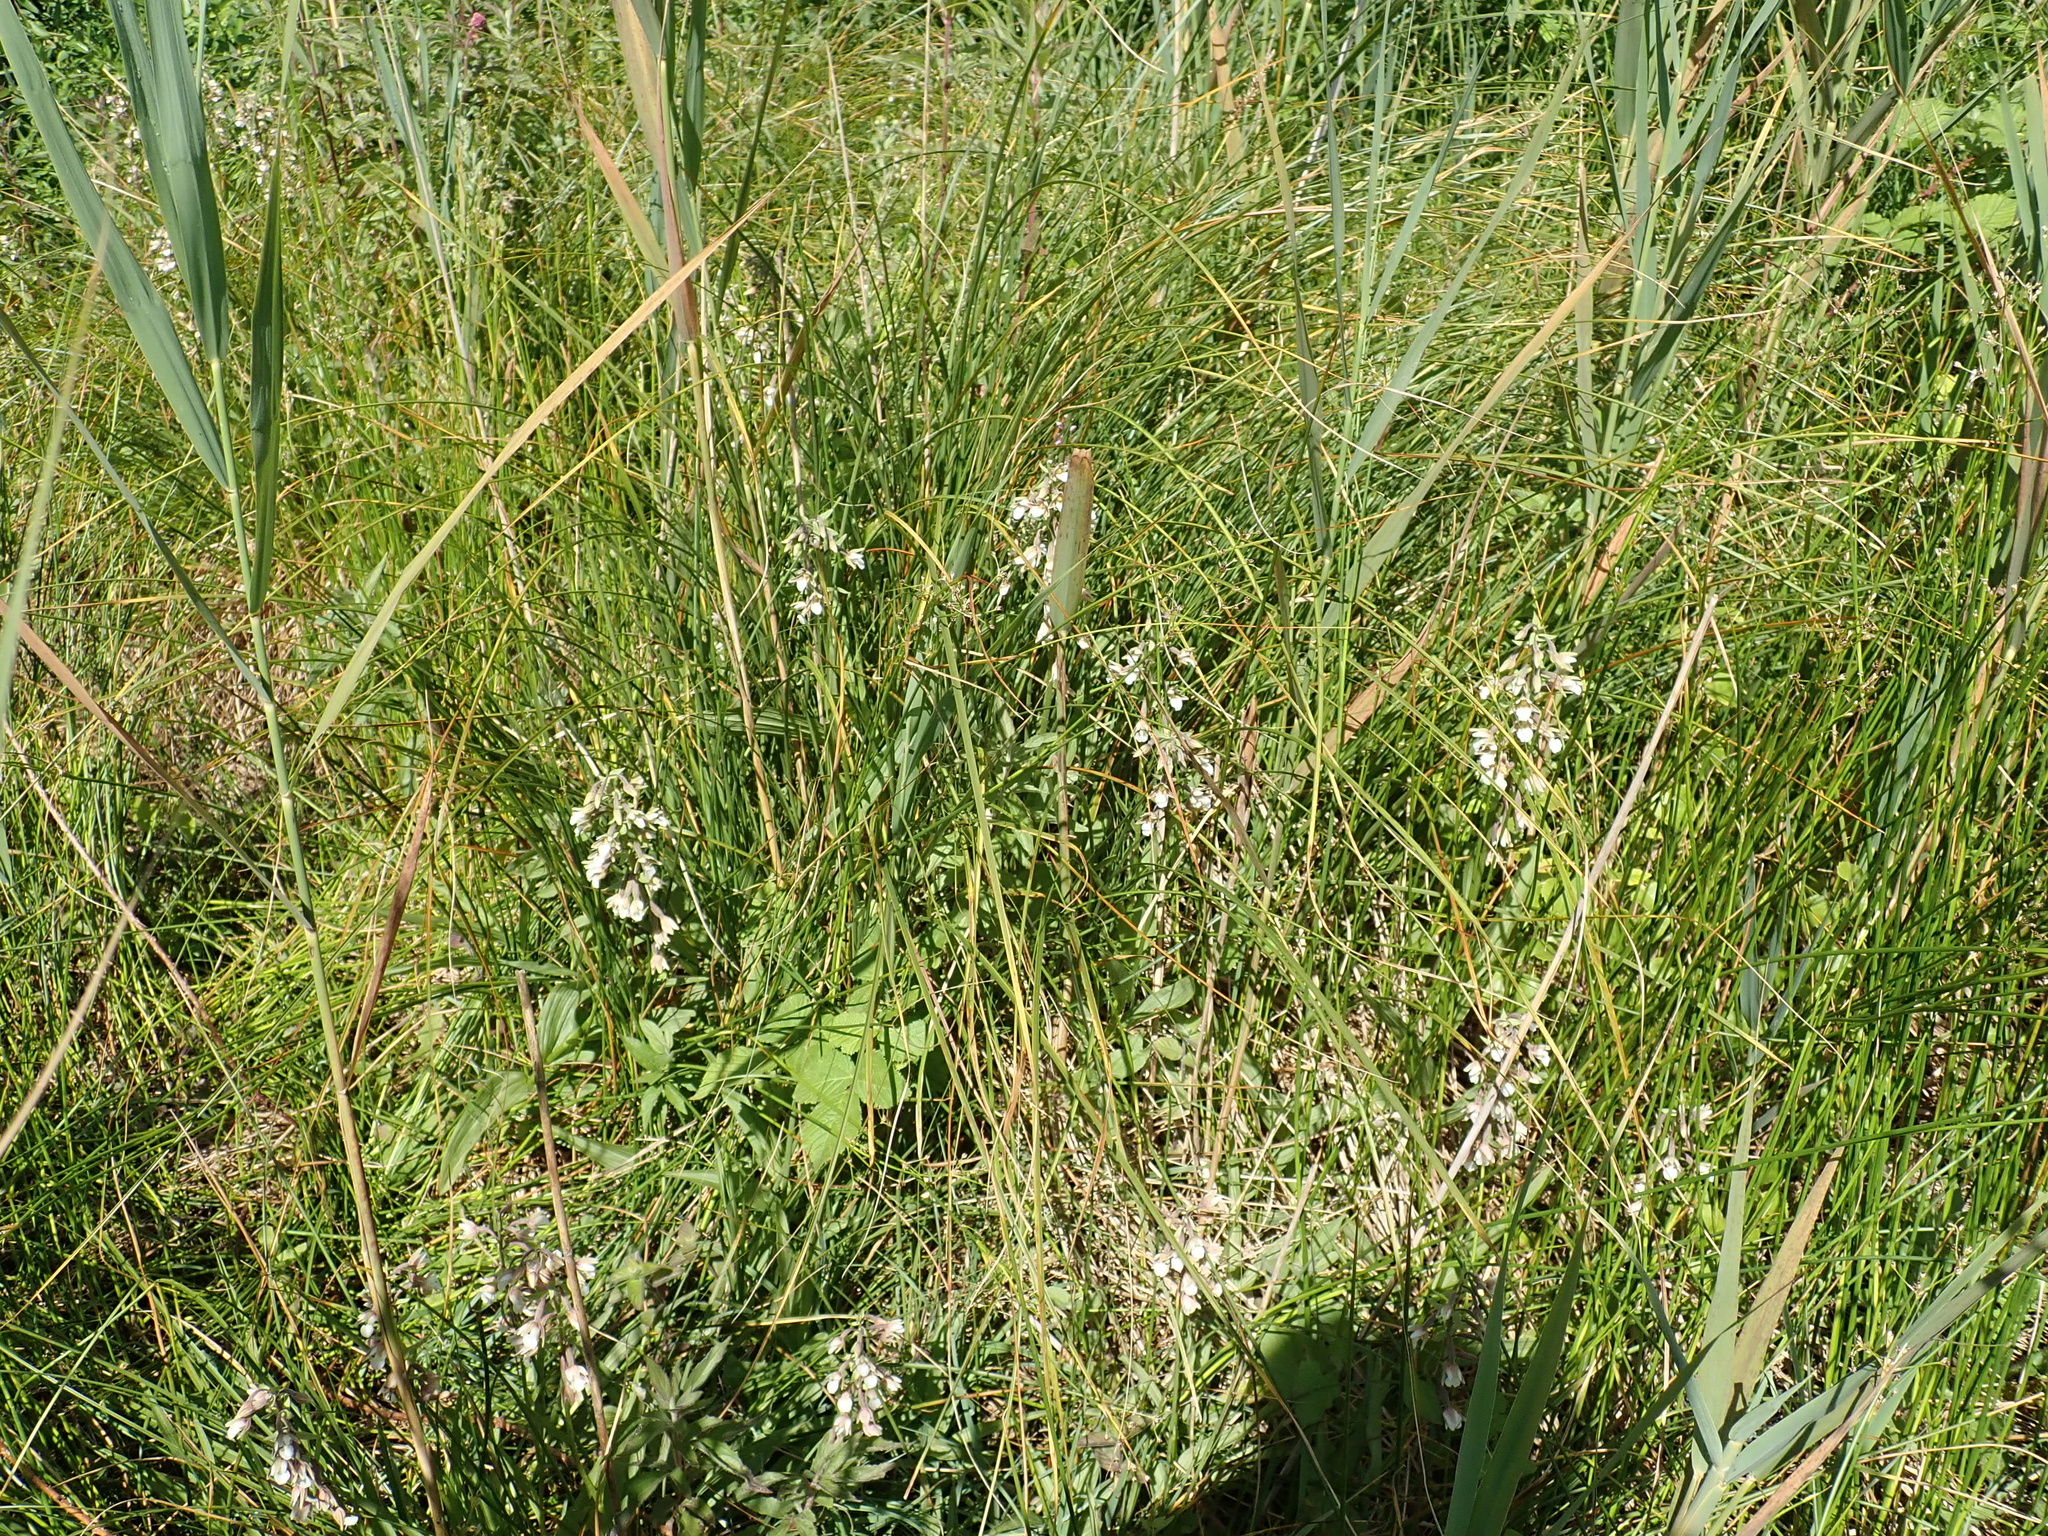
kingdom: Plantae
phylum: Tracheophyta
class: Liliopsida
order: Asparagales
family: Orchidaceae
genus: Epipactis
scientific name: Epipactis palustris
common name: Marsh helleborine
